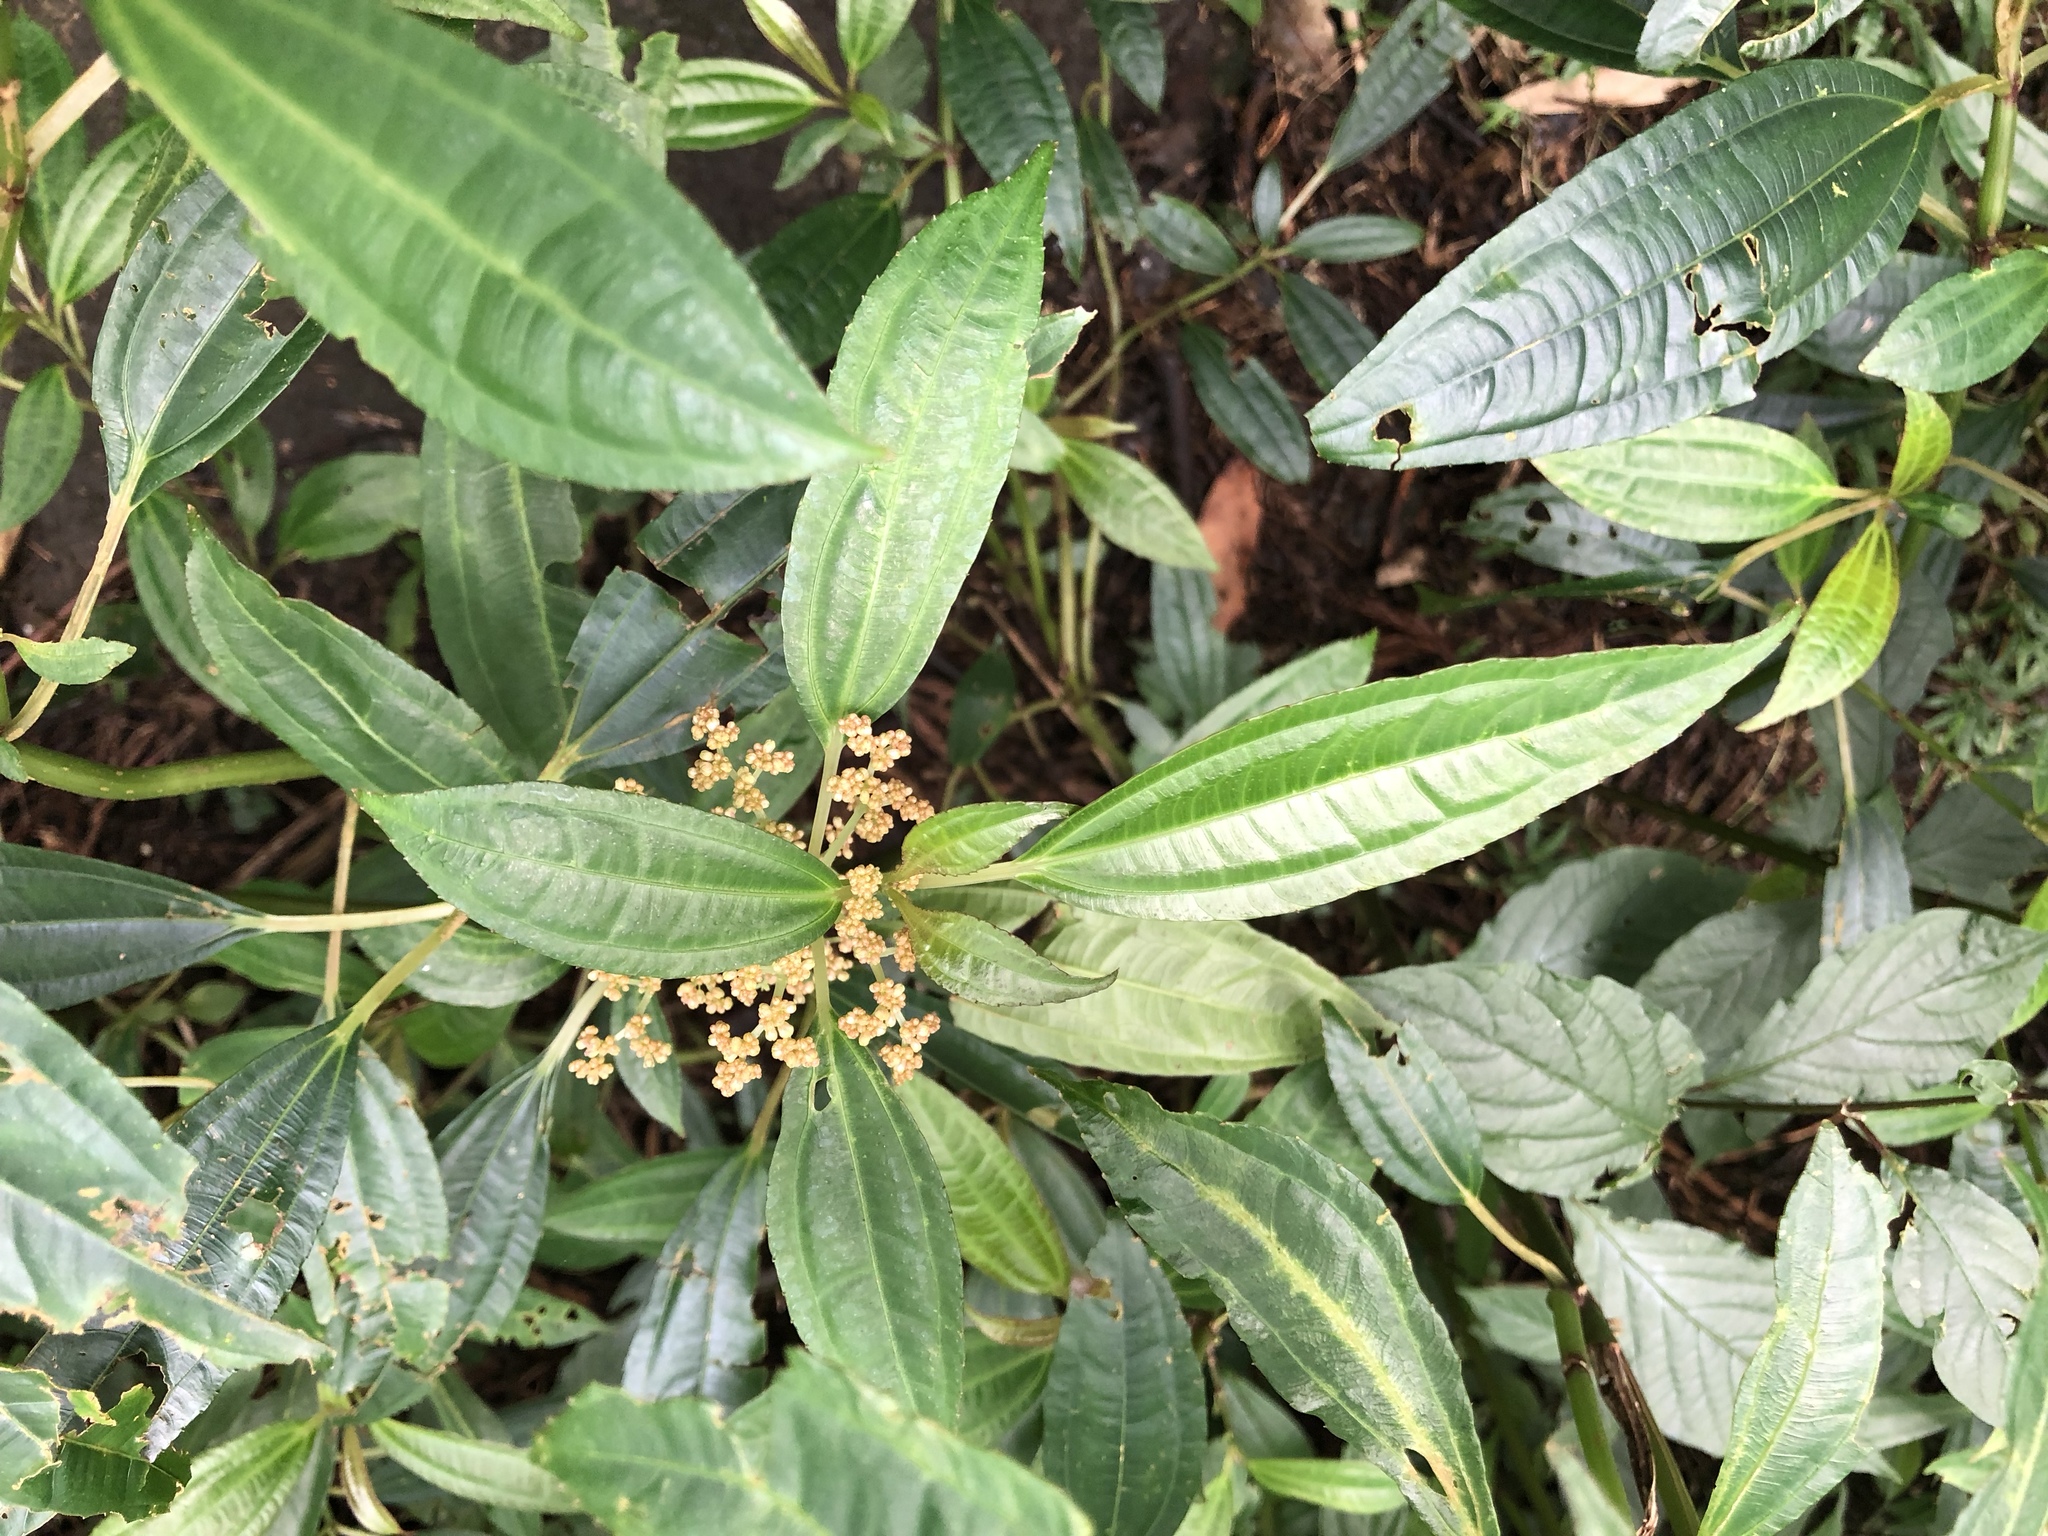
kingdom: Plantae
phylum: Tracheophyta
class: Magnoliopsida
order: Rosales
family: Urticaceae
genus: Pilea
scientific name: Pilea rotundinucula
